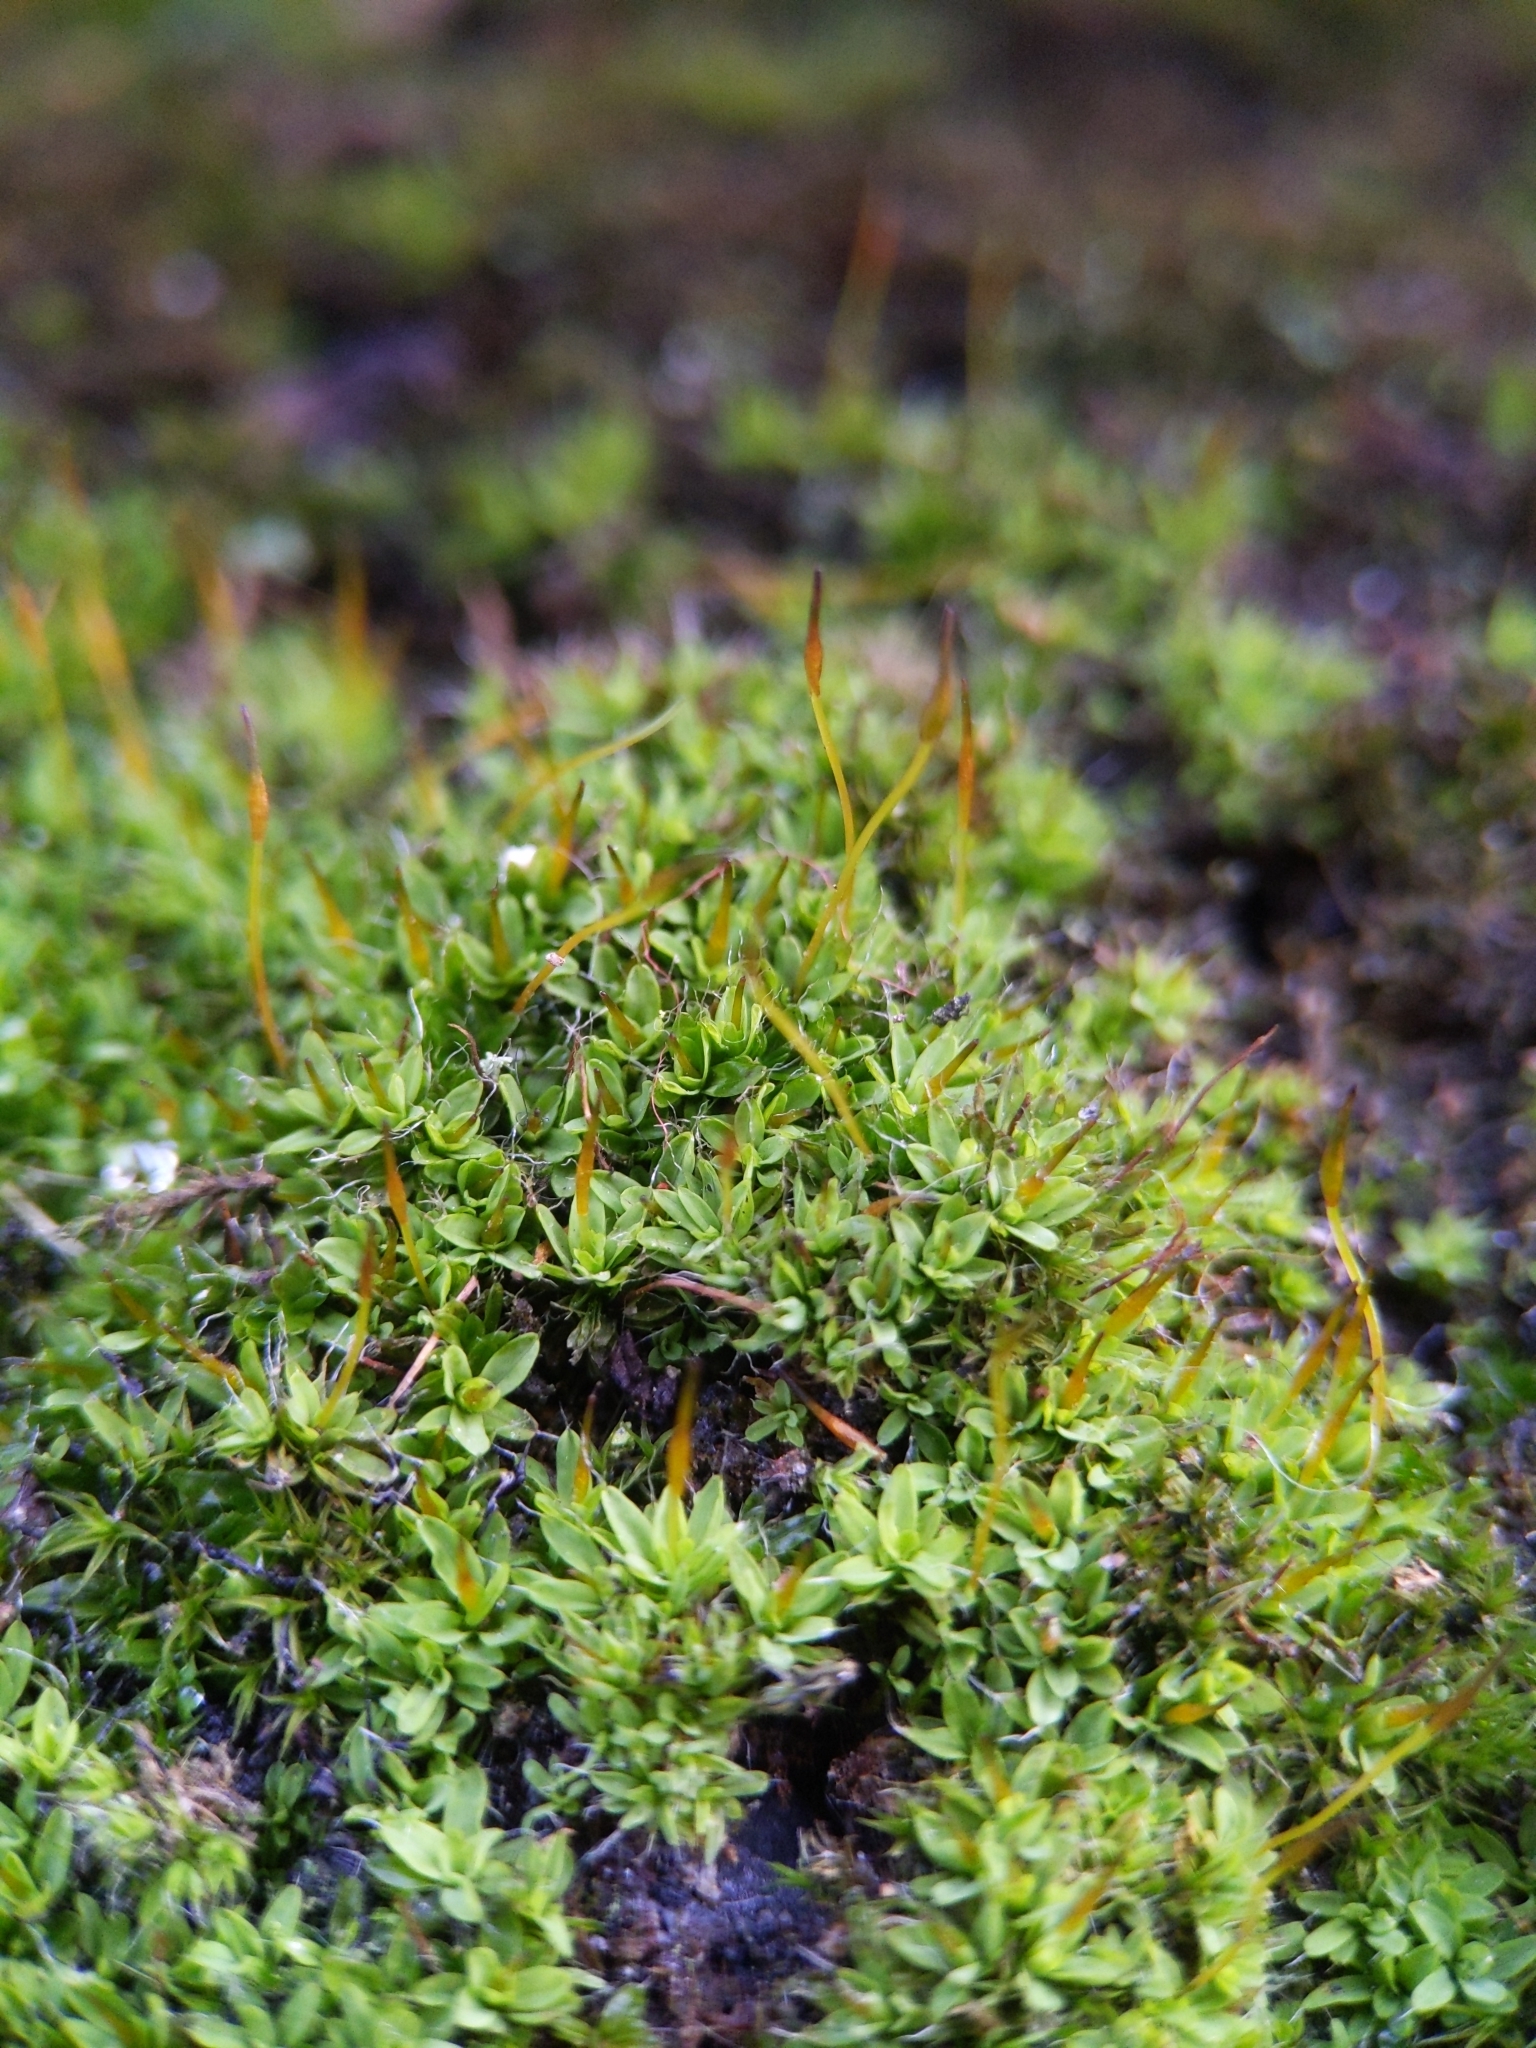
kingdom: Plantae
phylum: Bryophyta
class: Bryopsida
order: Pottiales
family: Pottiaceae
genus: Tortula
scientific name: Tortula muralis
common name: Wall screw-moss
